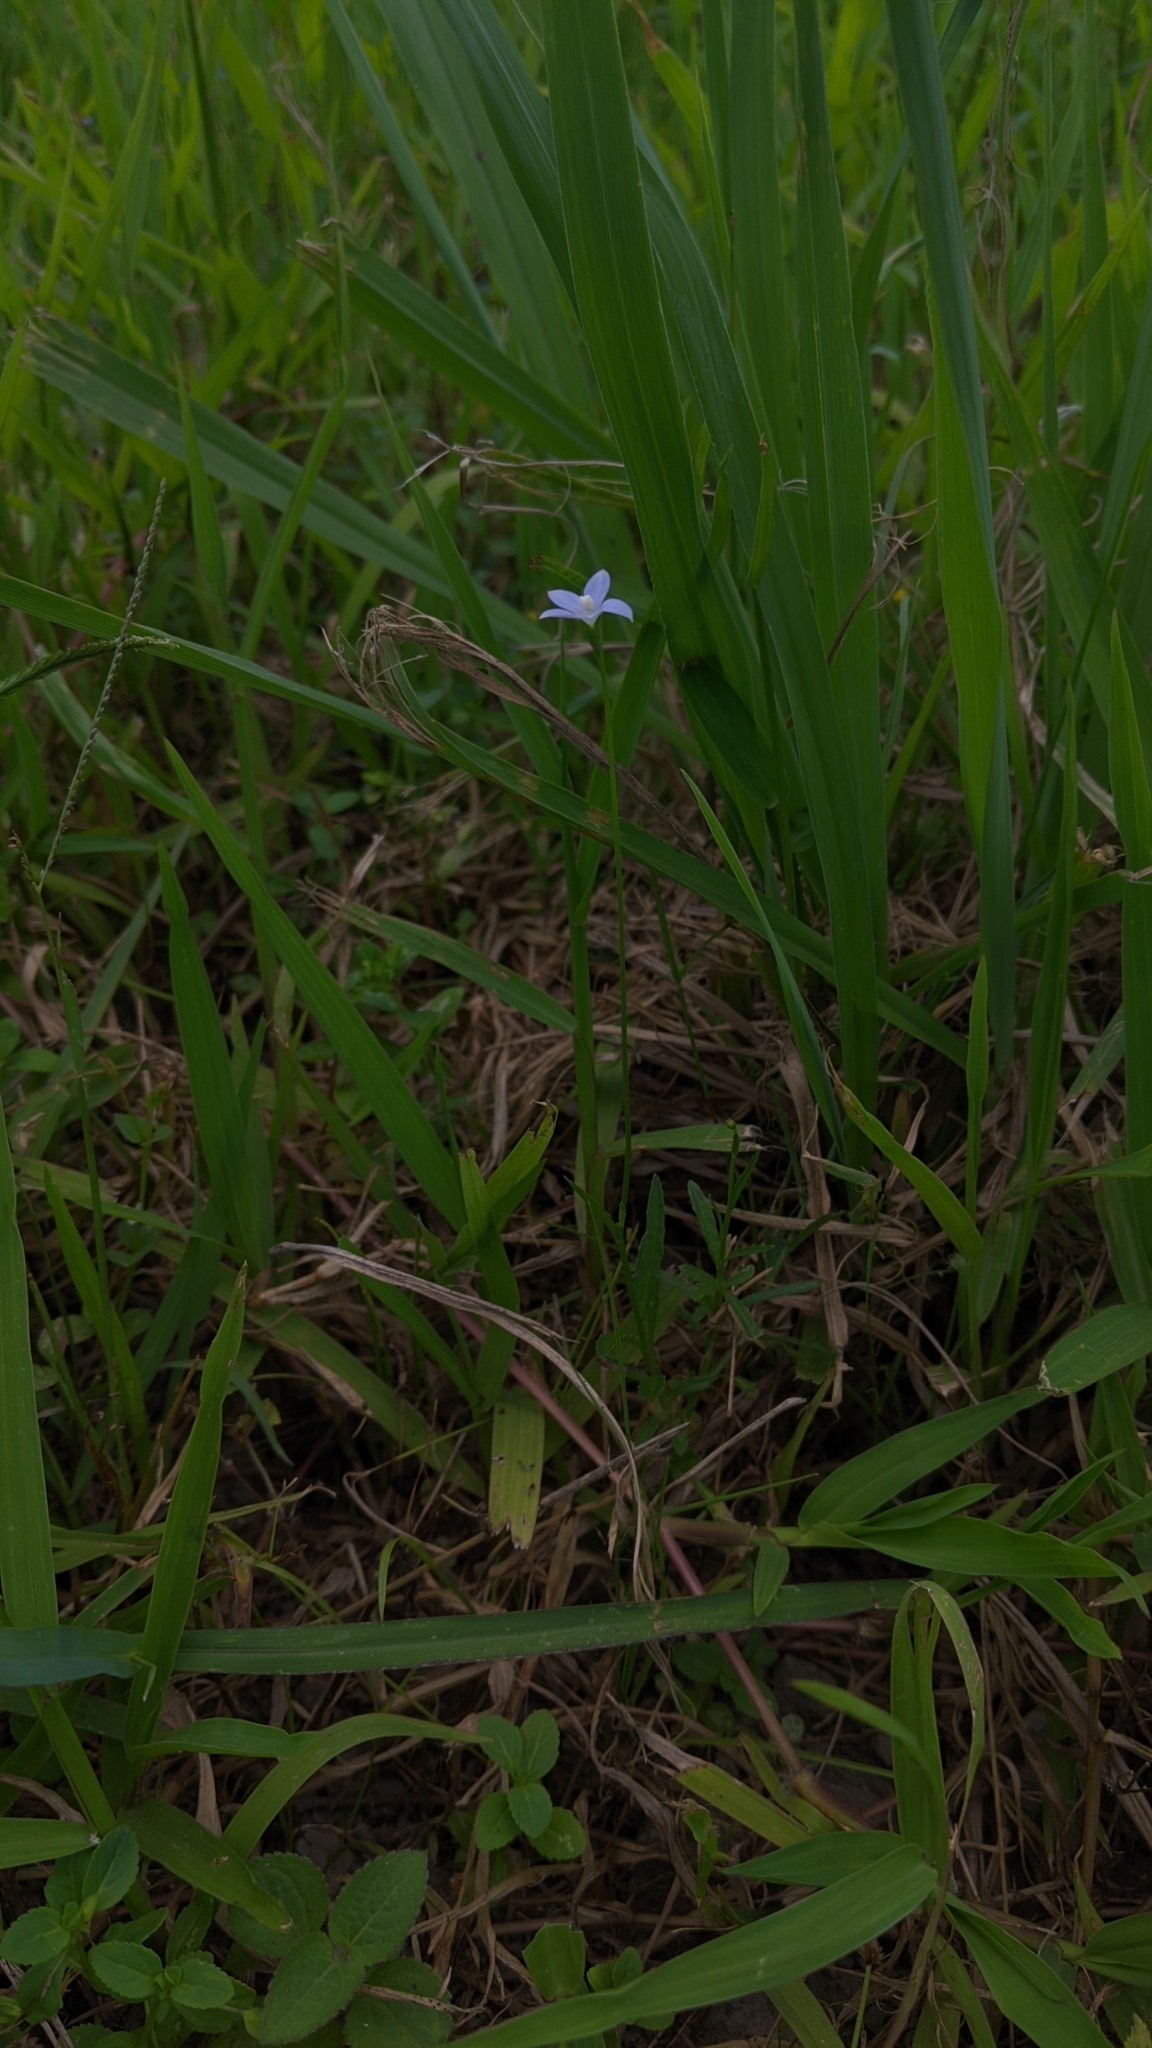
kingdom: Plantae
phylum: Tracheophyta
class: Magnoliopsida
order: Asterales
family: Campanulaceae
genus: Wahlenbergia
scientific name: Wahlenbergia marginata
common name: Southern rockbell
